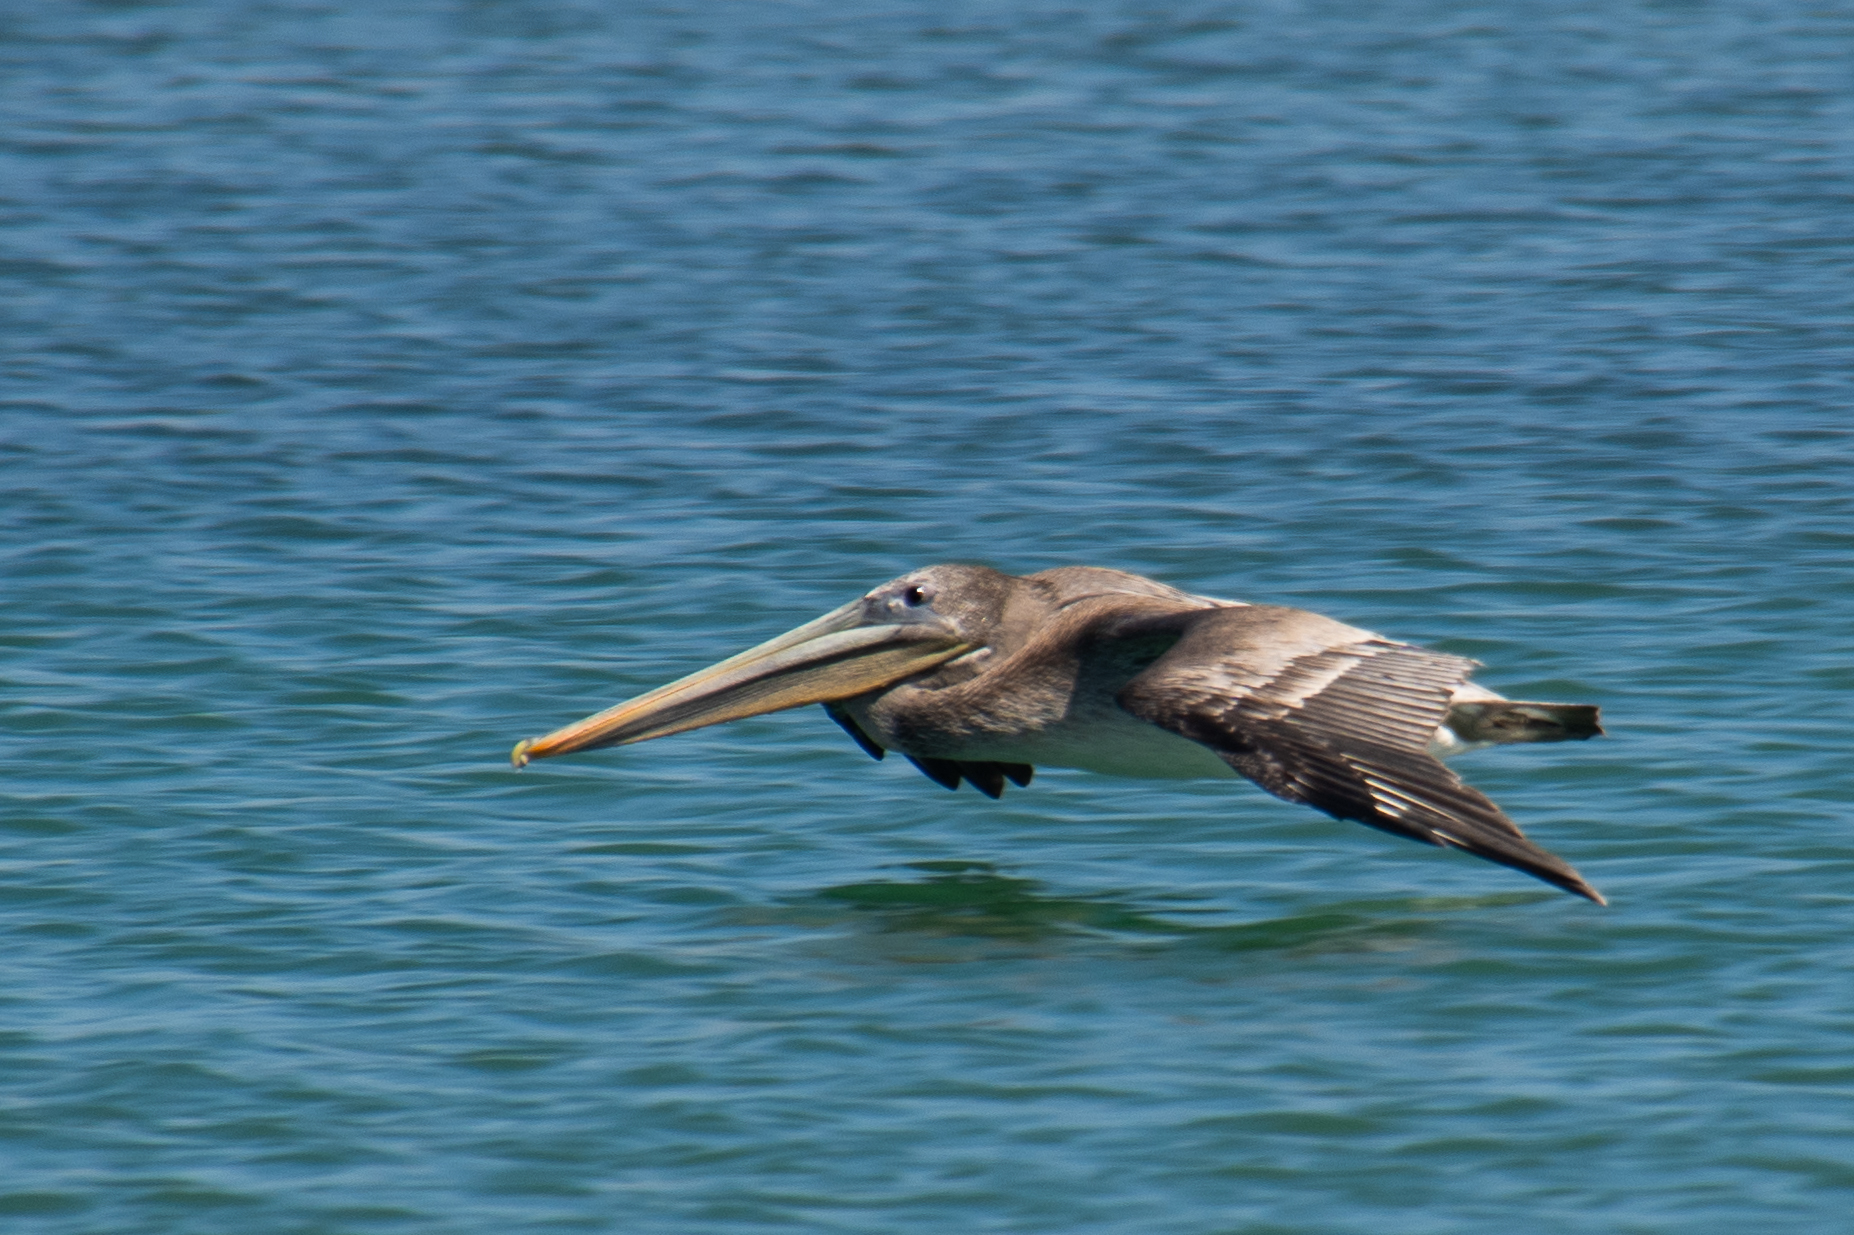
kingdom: Animalia
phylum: Chordata
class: Aves
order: Pelecaniformes
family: Pelecanidae
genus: Pelecanus
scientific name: Pelecanus occidentalis
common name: Brown pelican
